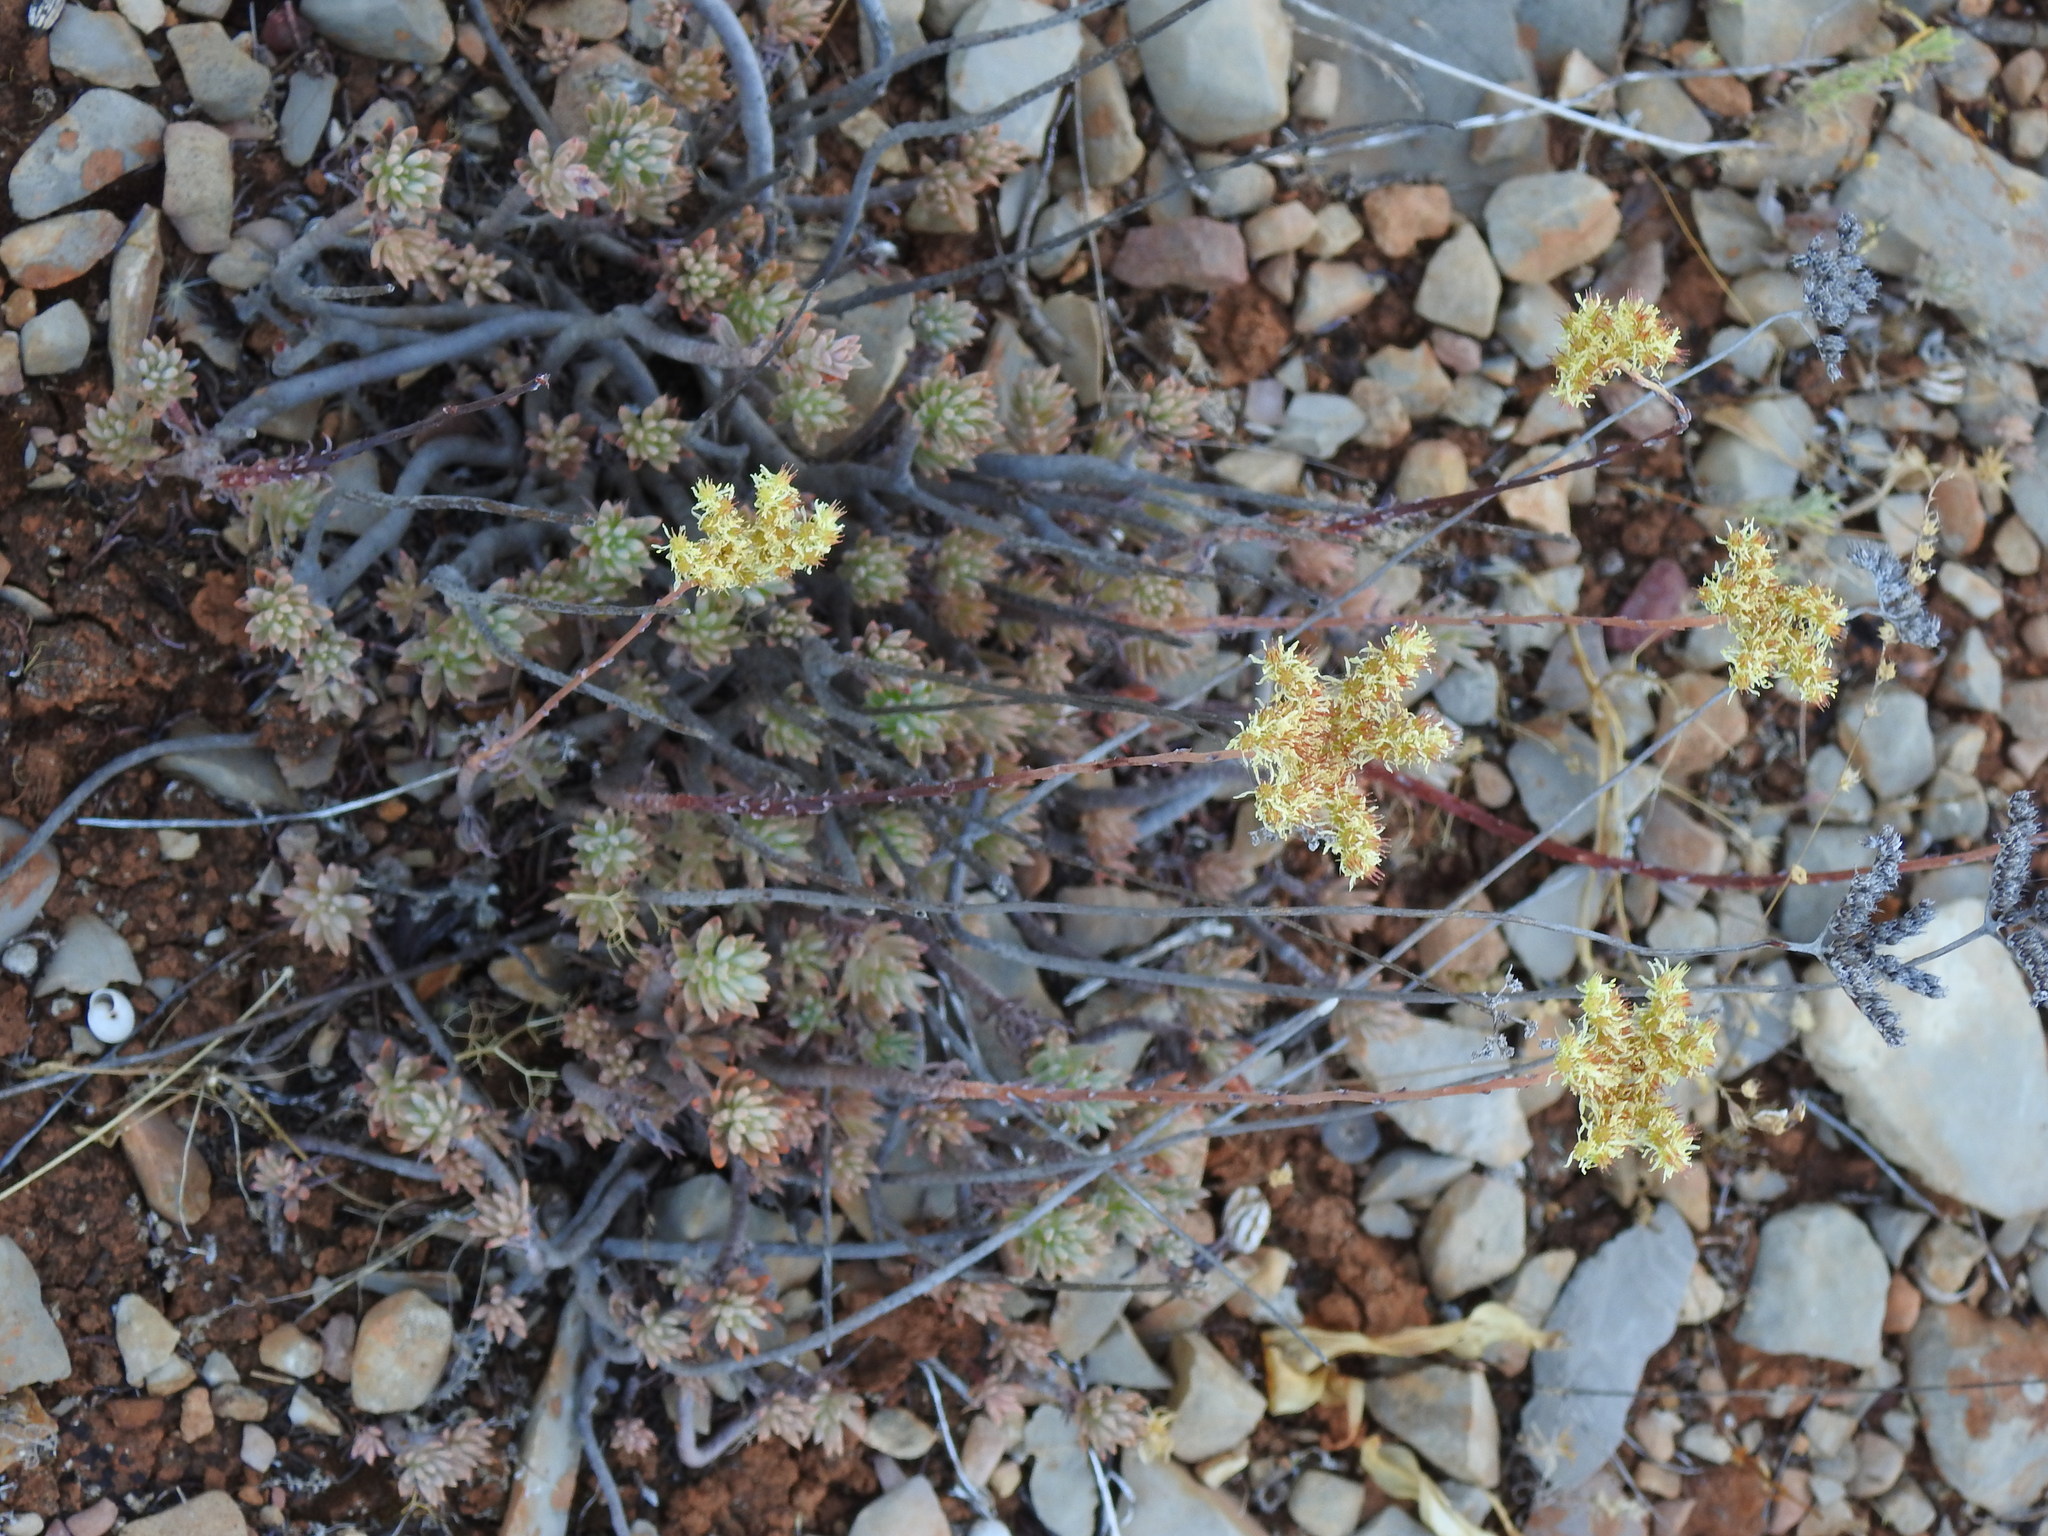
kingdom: Plantae
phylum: Tracheophyta
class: Magnoliopsida
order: Saxifragales
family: Crassulaceae
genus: Petrosedum
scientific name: Petrosedum sediforme
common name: Pale stonecrop
